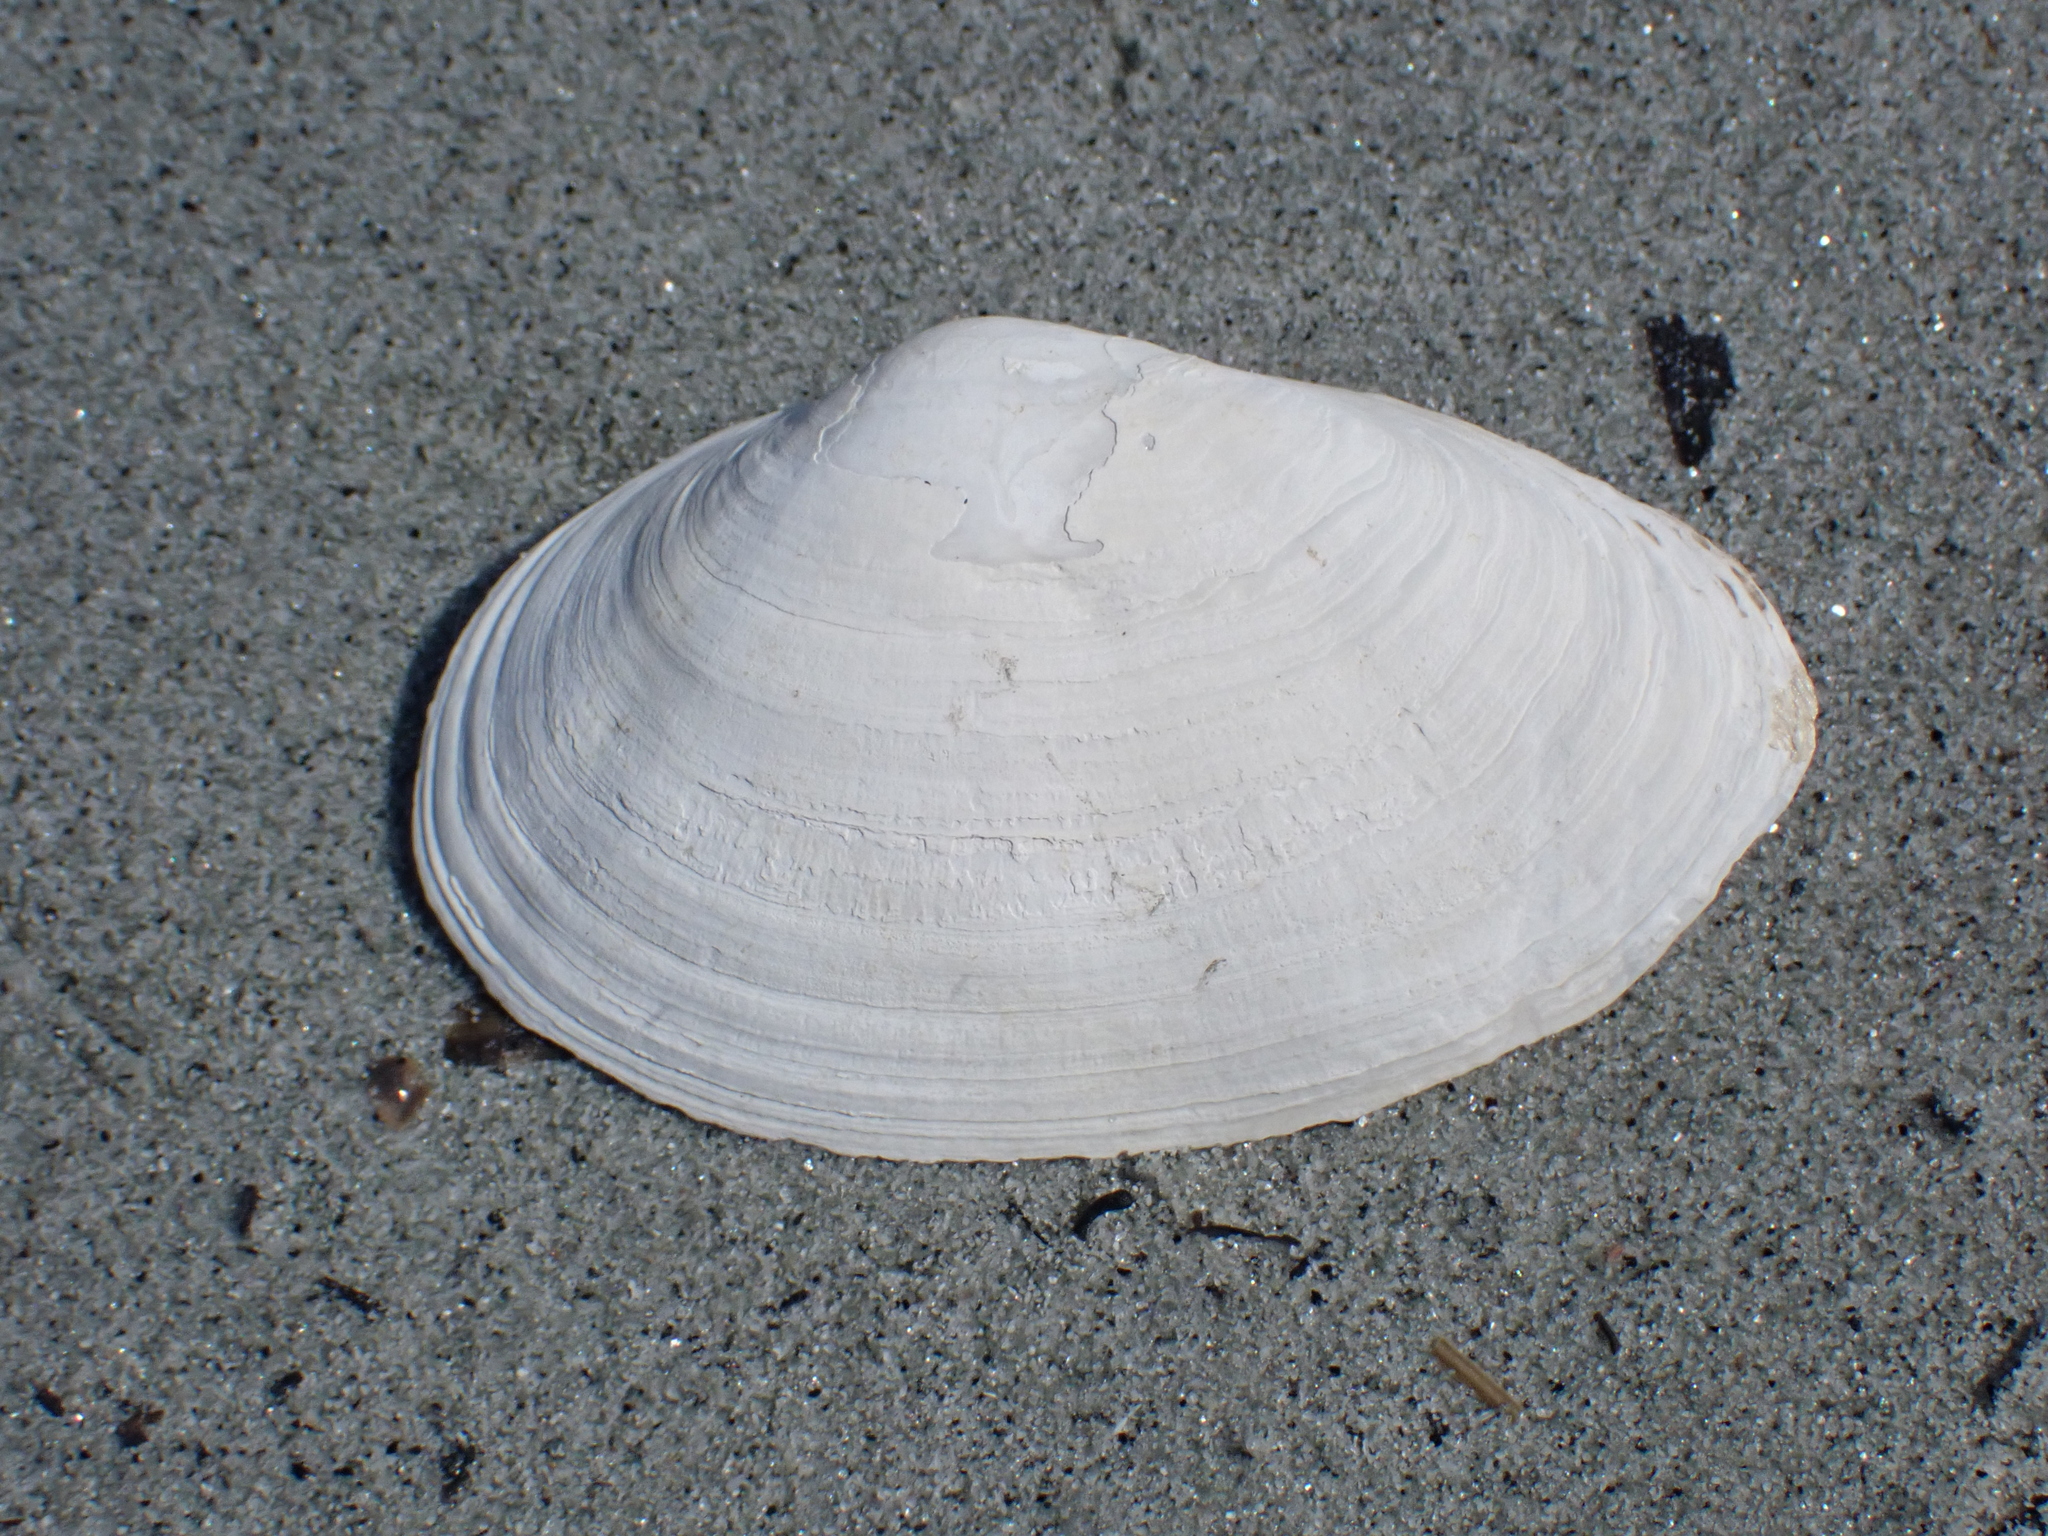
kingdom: Animalia
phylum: Mollusca
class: Bivalvia
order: Myida
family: Myidae
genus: Mya
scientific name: Mya arenaria
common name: Soft-shelled clam
